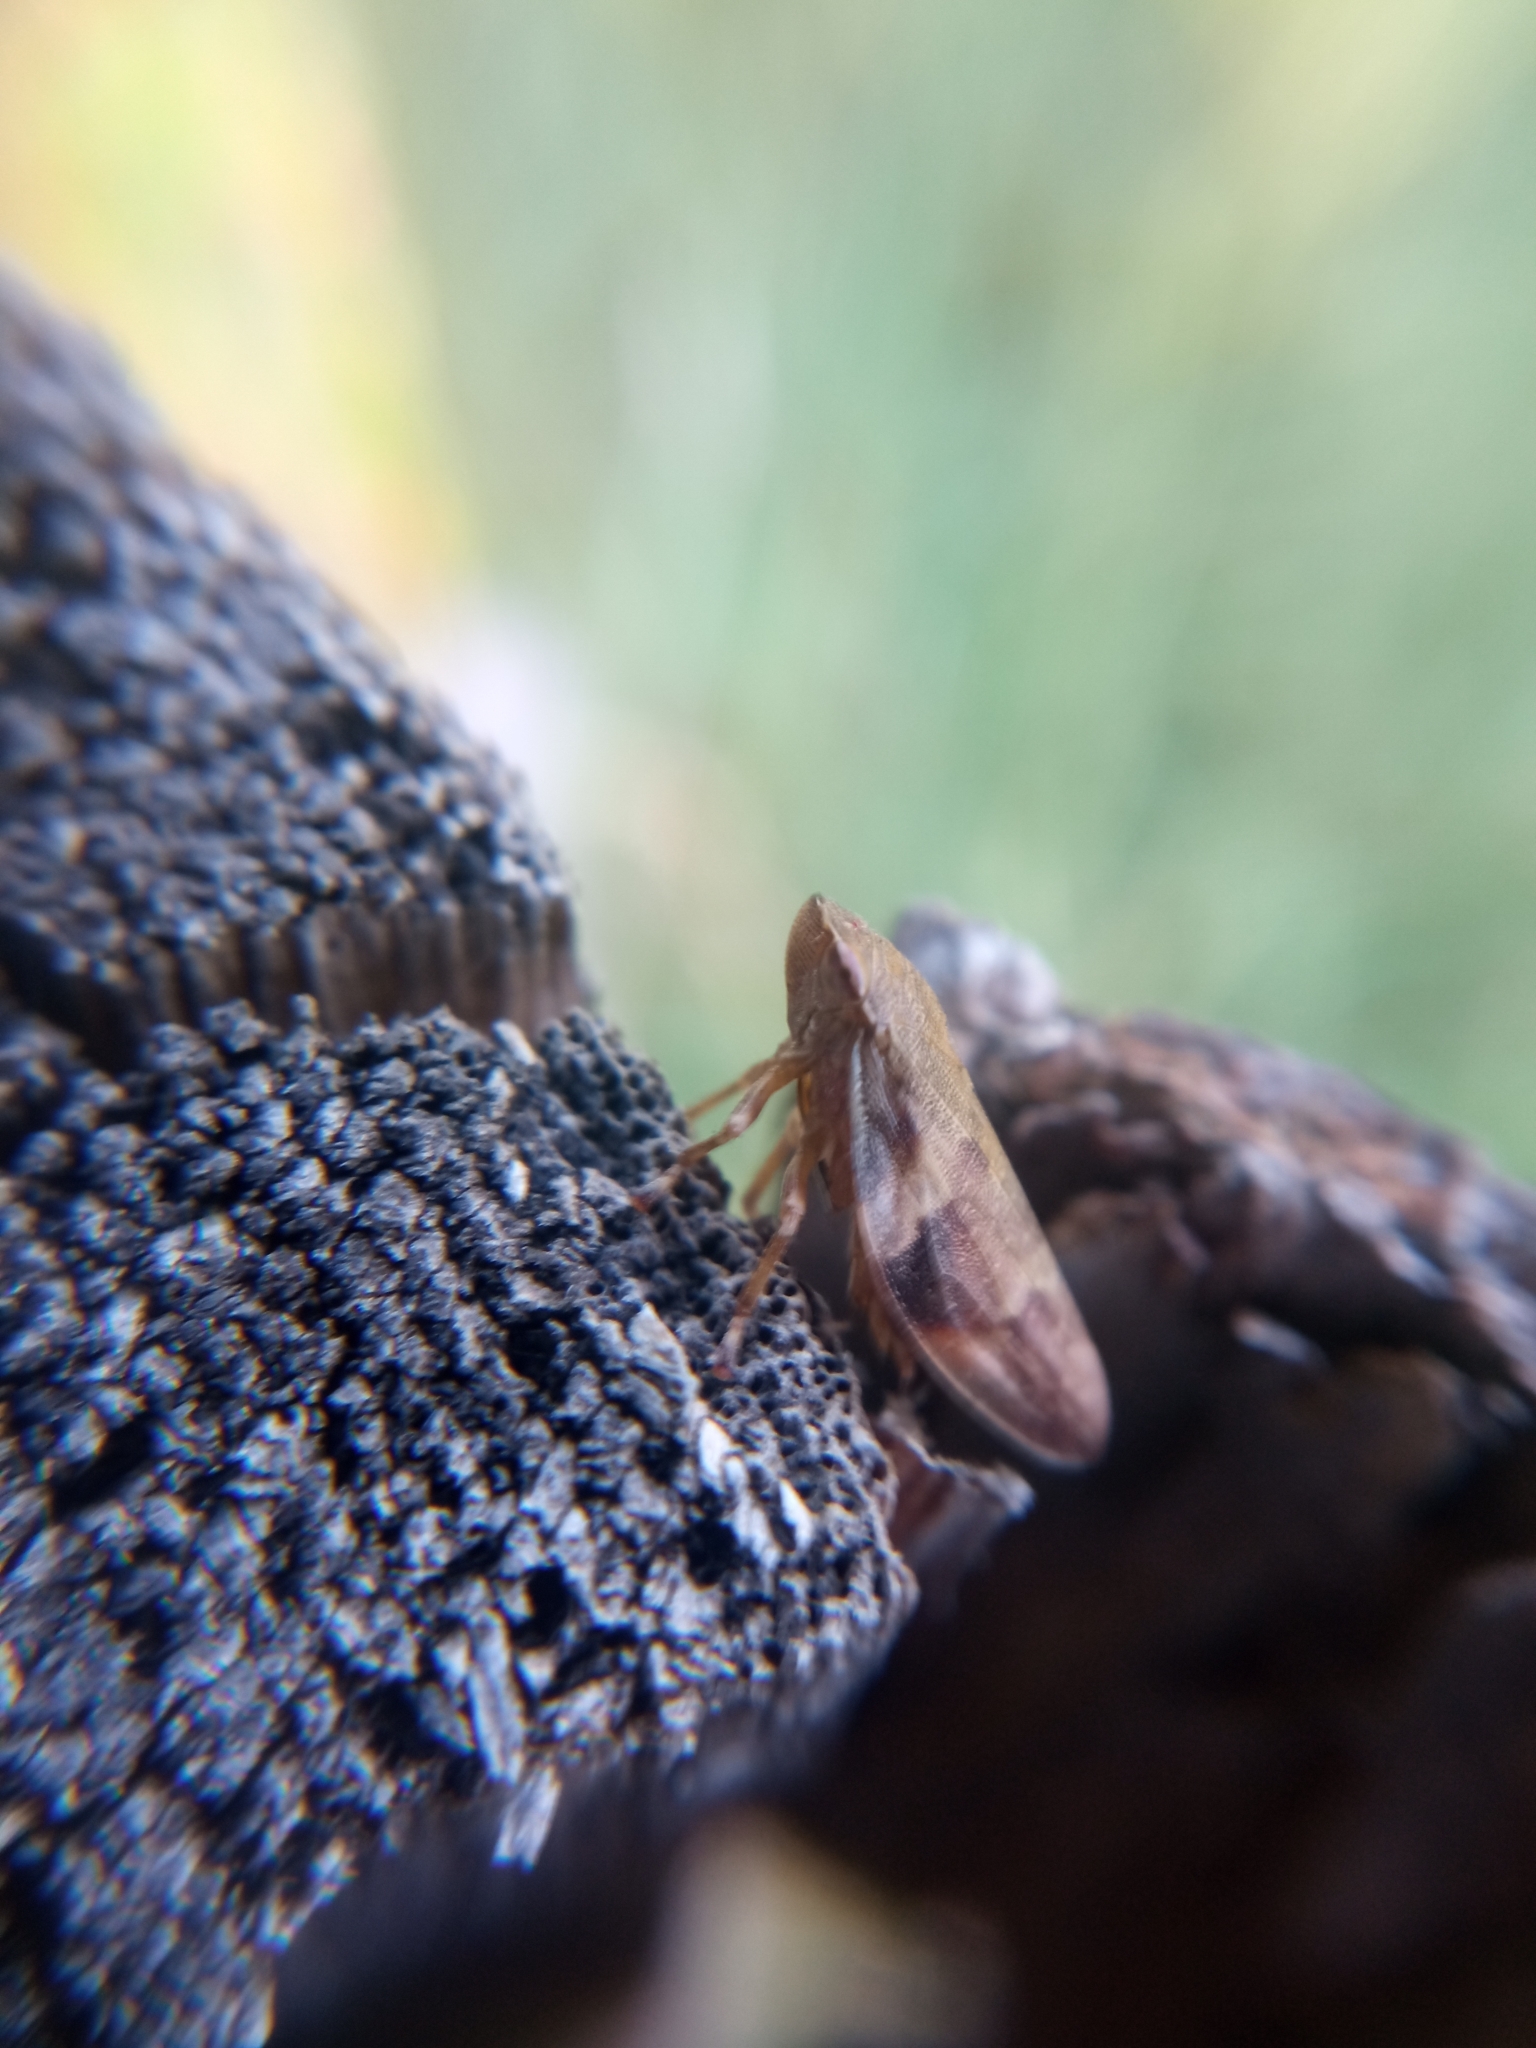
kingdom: Animalia
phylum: Arthropoda
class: Insecta
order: Hemiptera
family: Aphrophoridae
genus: Aphrophora
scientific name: Aphrophora alni
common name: European alder spittlebug
